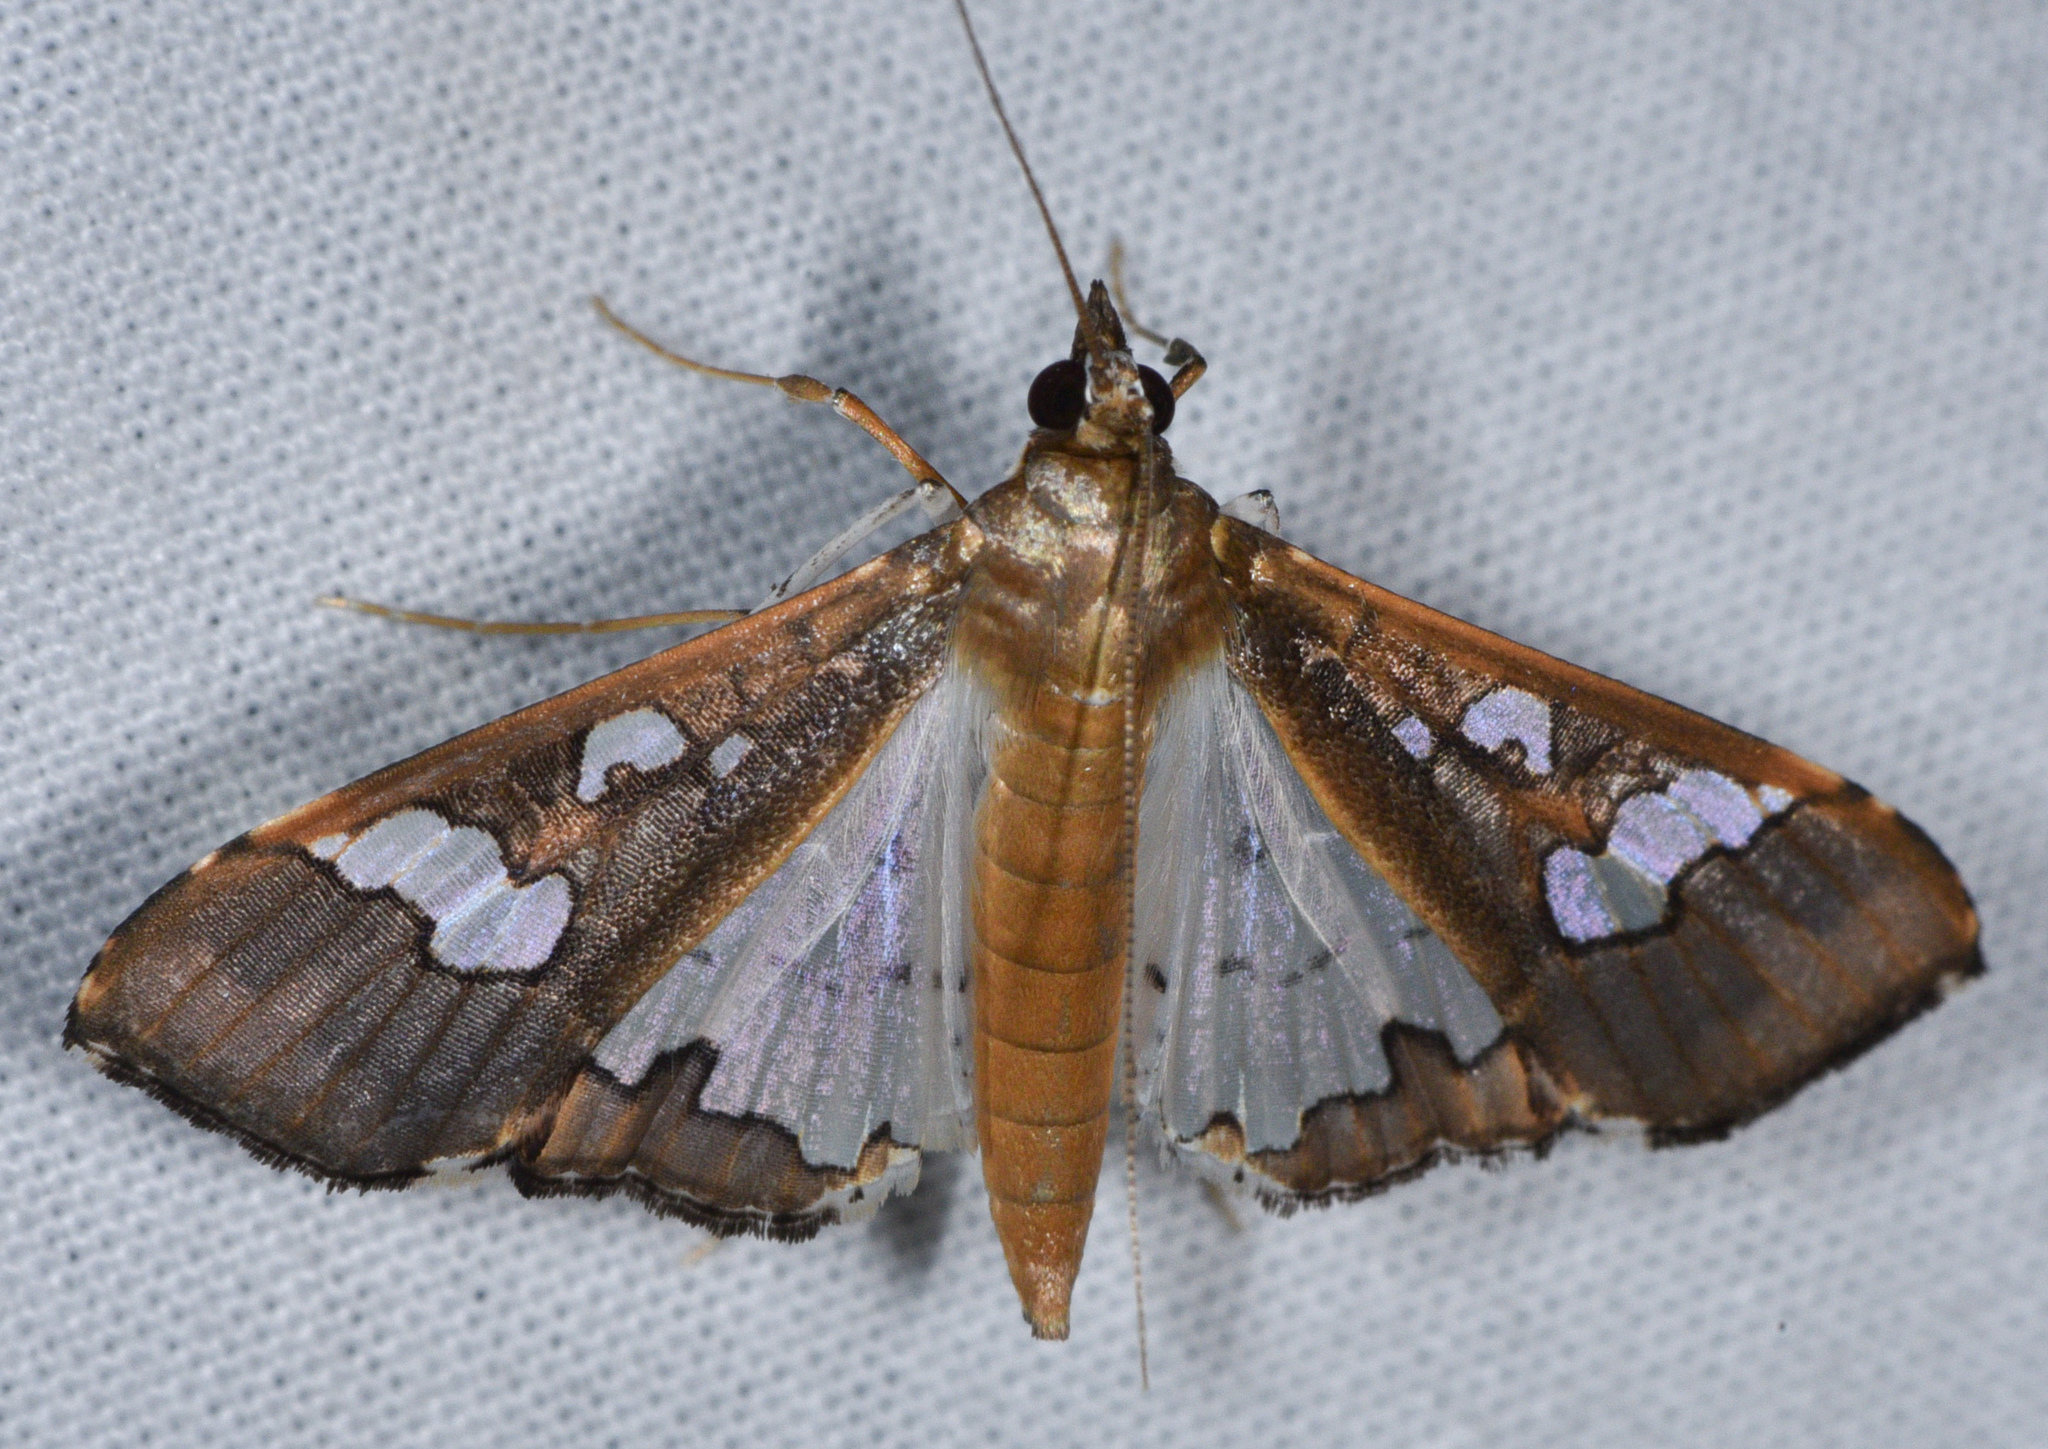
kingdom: Animalia
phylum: Arthropoda
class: Insecta
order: Lepidoptera
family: Crambidae
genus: Maruca
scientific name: Maruca vitrata
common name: Maruca pod borer
